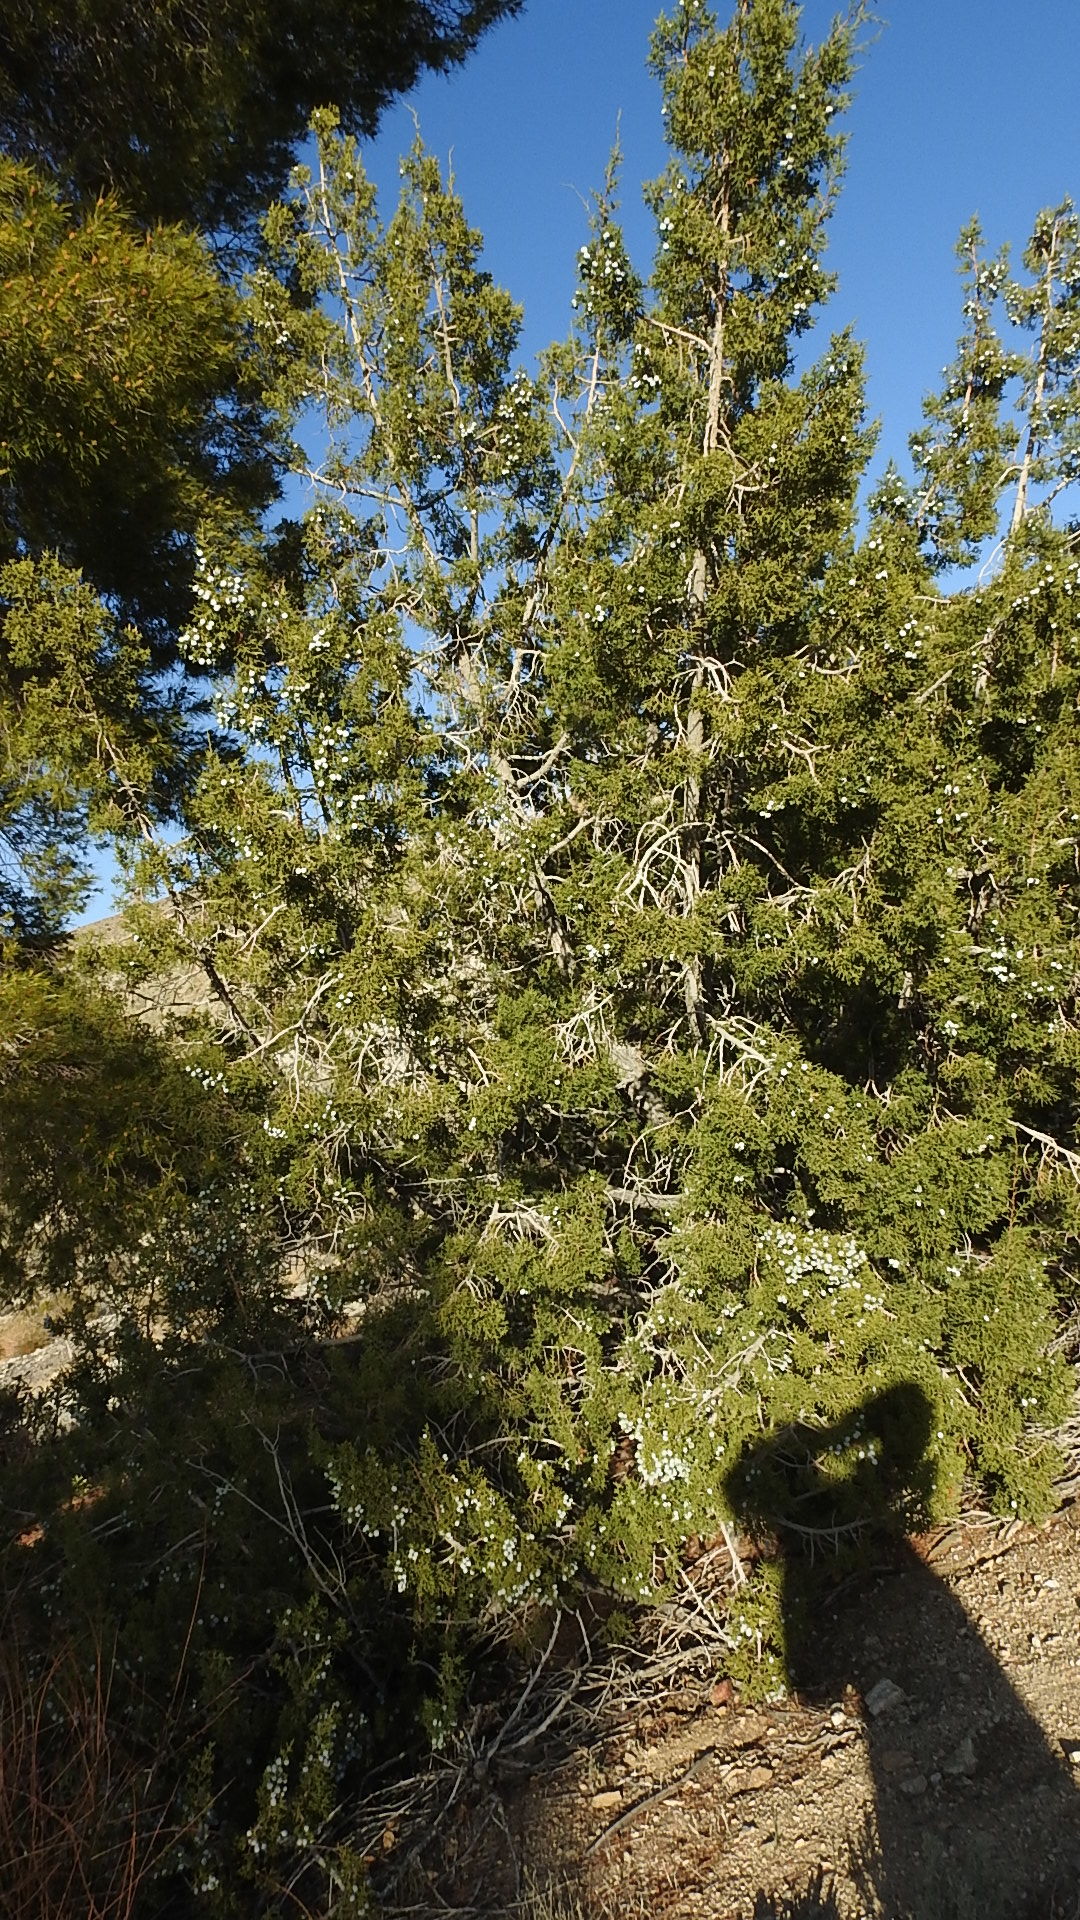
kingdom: Plantae
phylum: Tracheophyta
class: Pinopsida
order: Pinales
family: Cupressaceae
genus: Juniperus
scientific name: Juniperus californica
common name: California juniper
